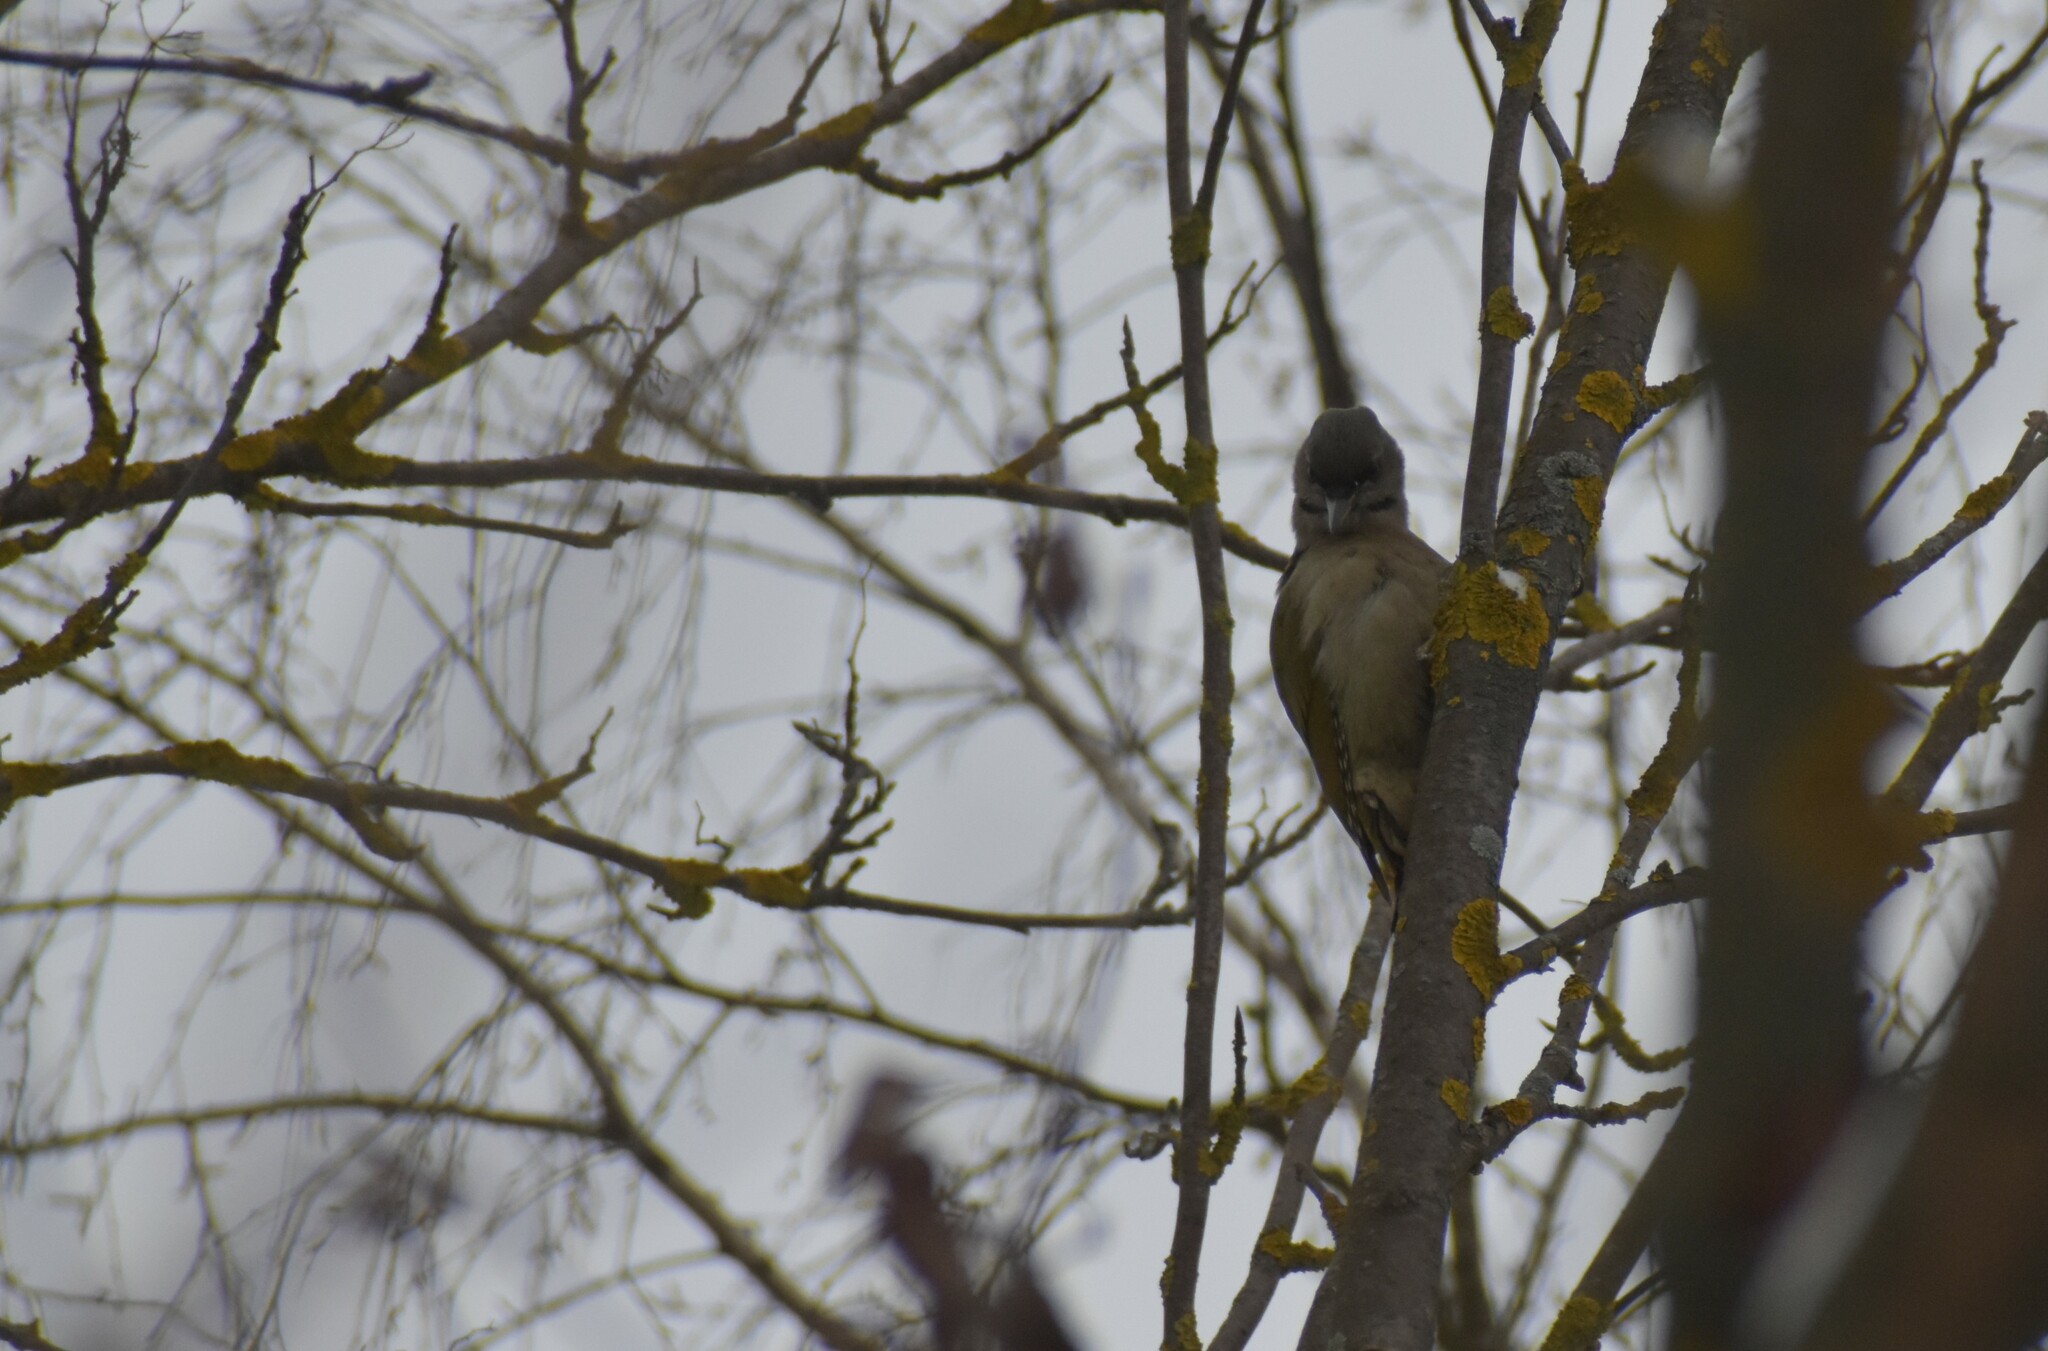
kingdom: Animalia
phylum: Chordata
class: Aves
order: Piciformes
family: Picidae
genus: Picus
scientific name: Picus canus
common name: Grey-headed woodpecker
